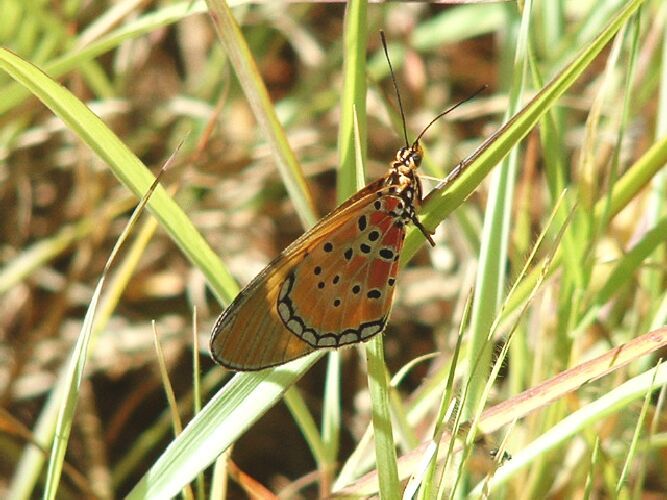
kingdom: Animalia
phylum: Arthropoda
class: Insecta
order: Lepidoptera
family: Nymphalidae
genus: Stephenia
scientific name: Stephenia
